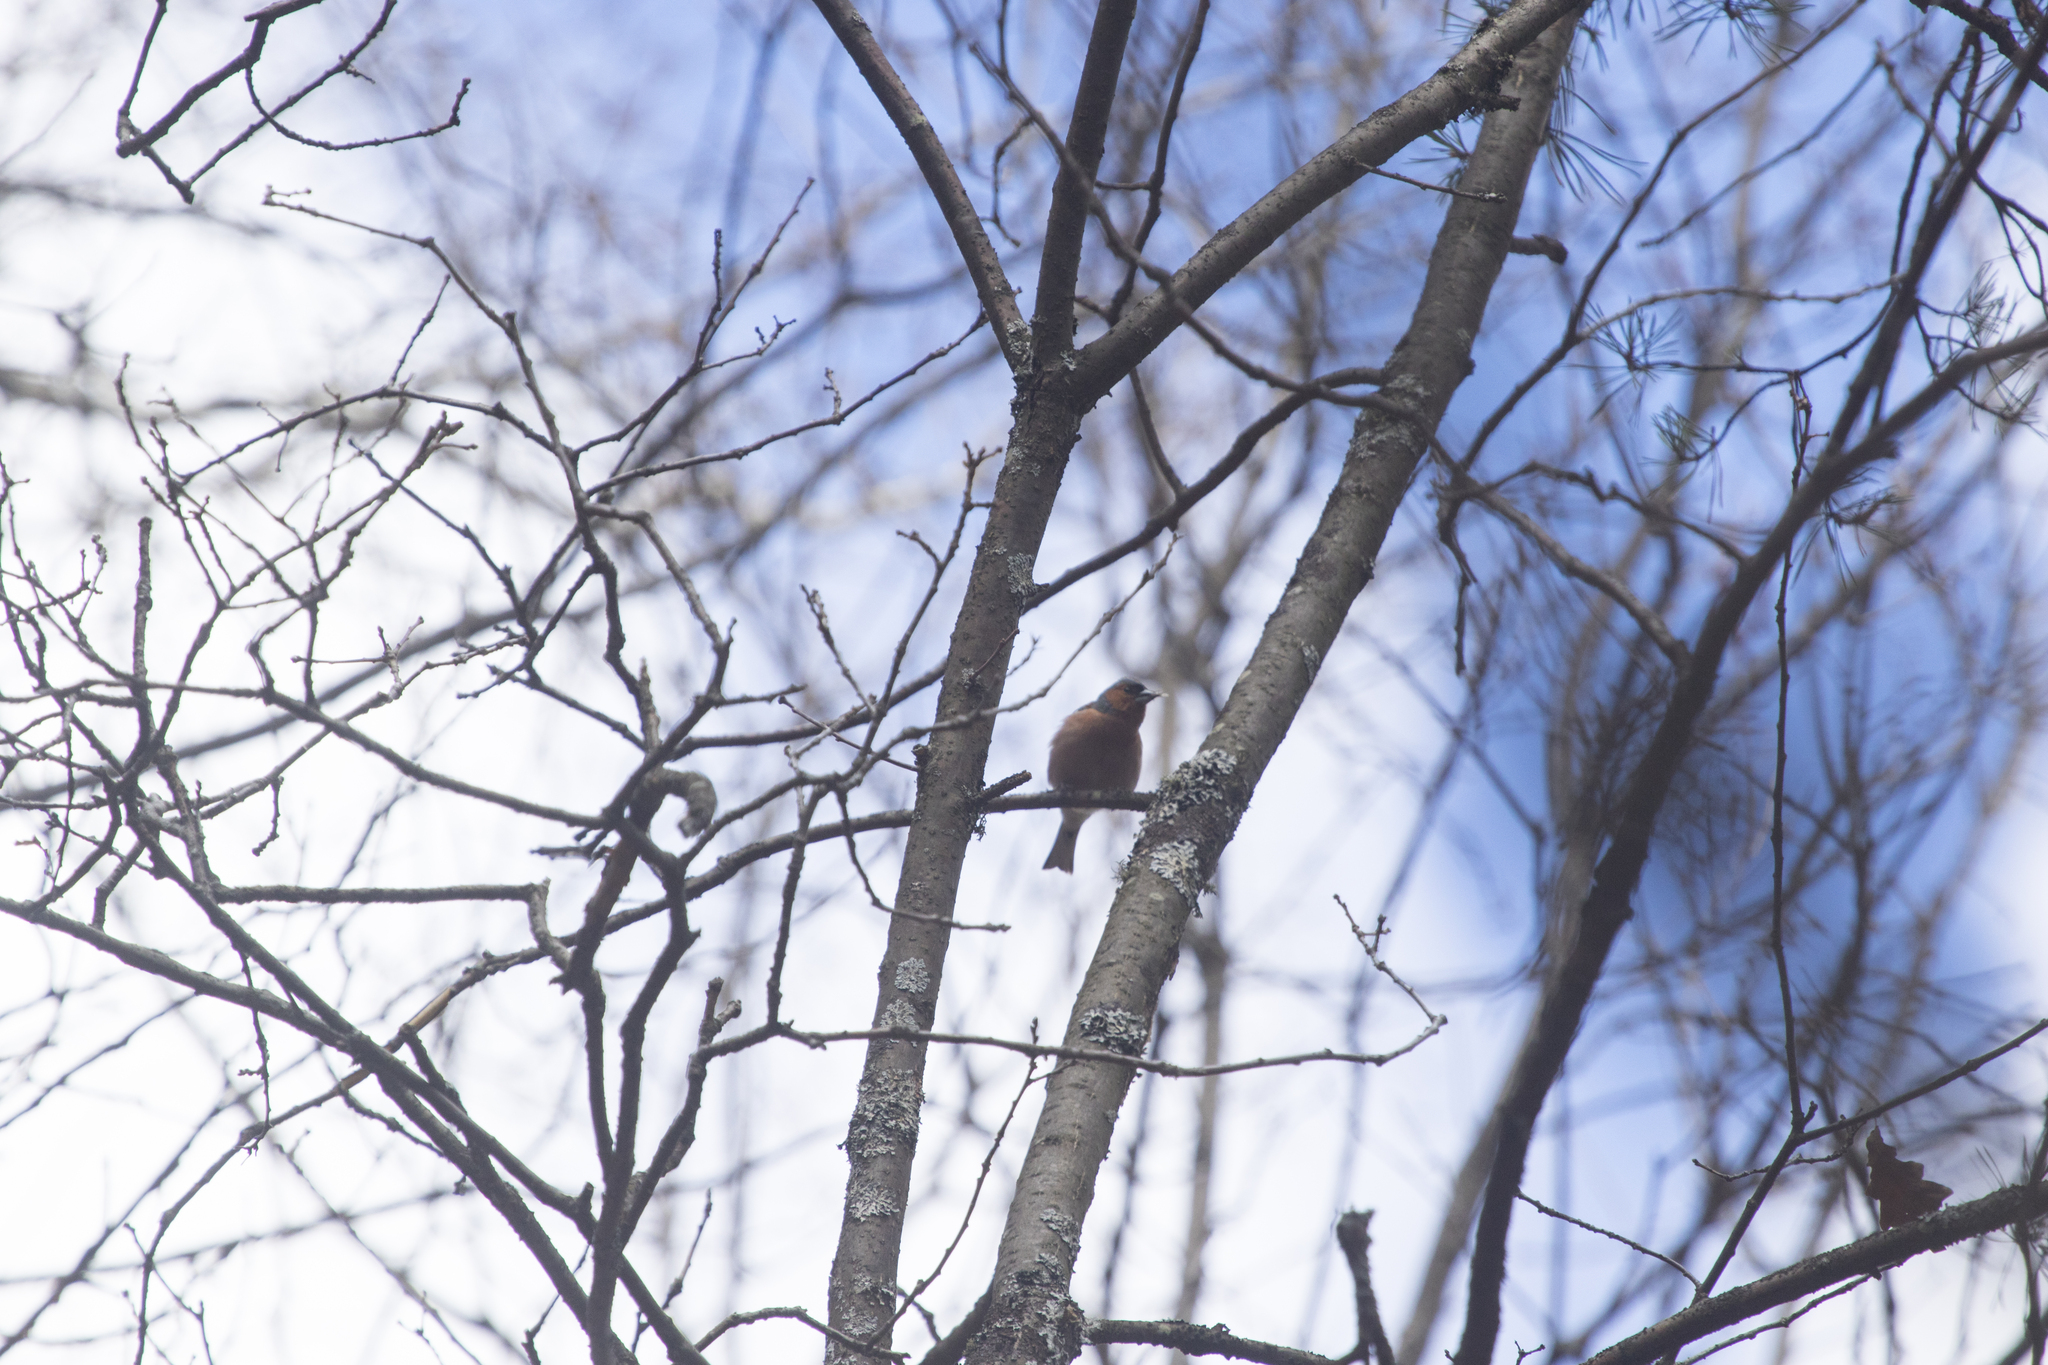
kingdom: Animalia
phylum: Chordata
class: Aves
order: Passeriformes
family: Fringillidae
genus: Fringilla
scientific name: Fringilla coelebs
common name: Common chaffinch
